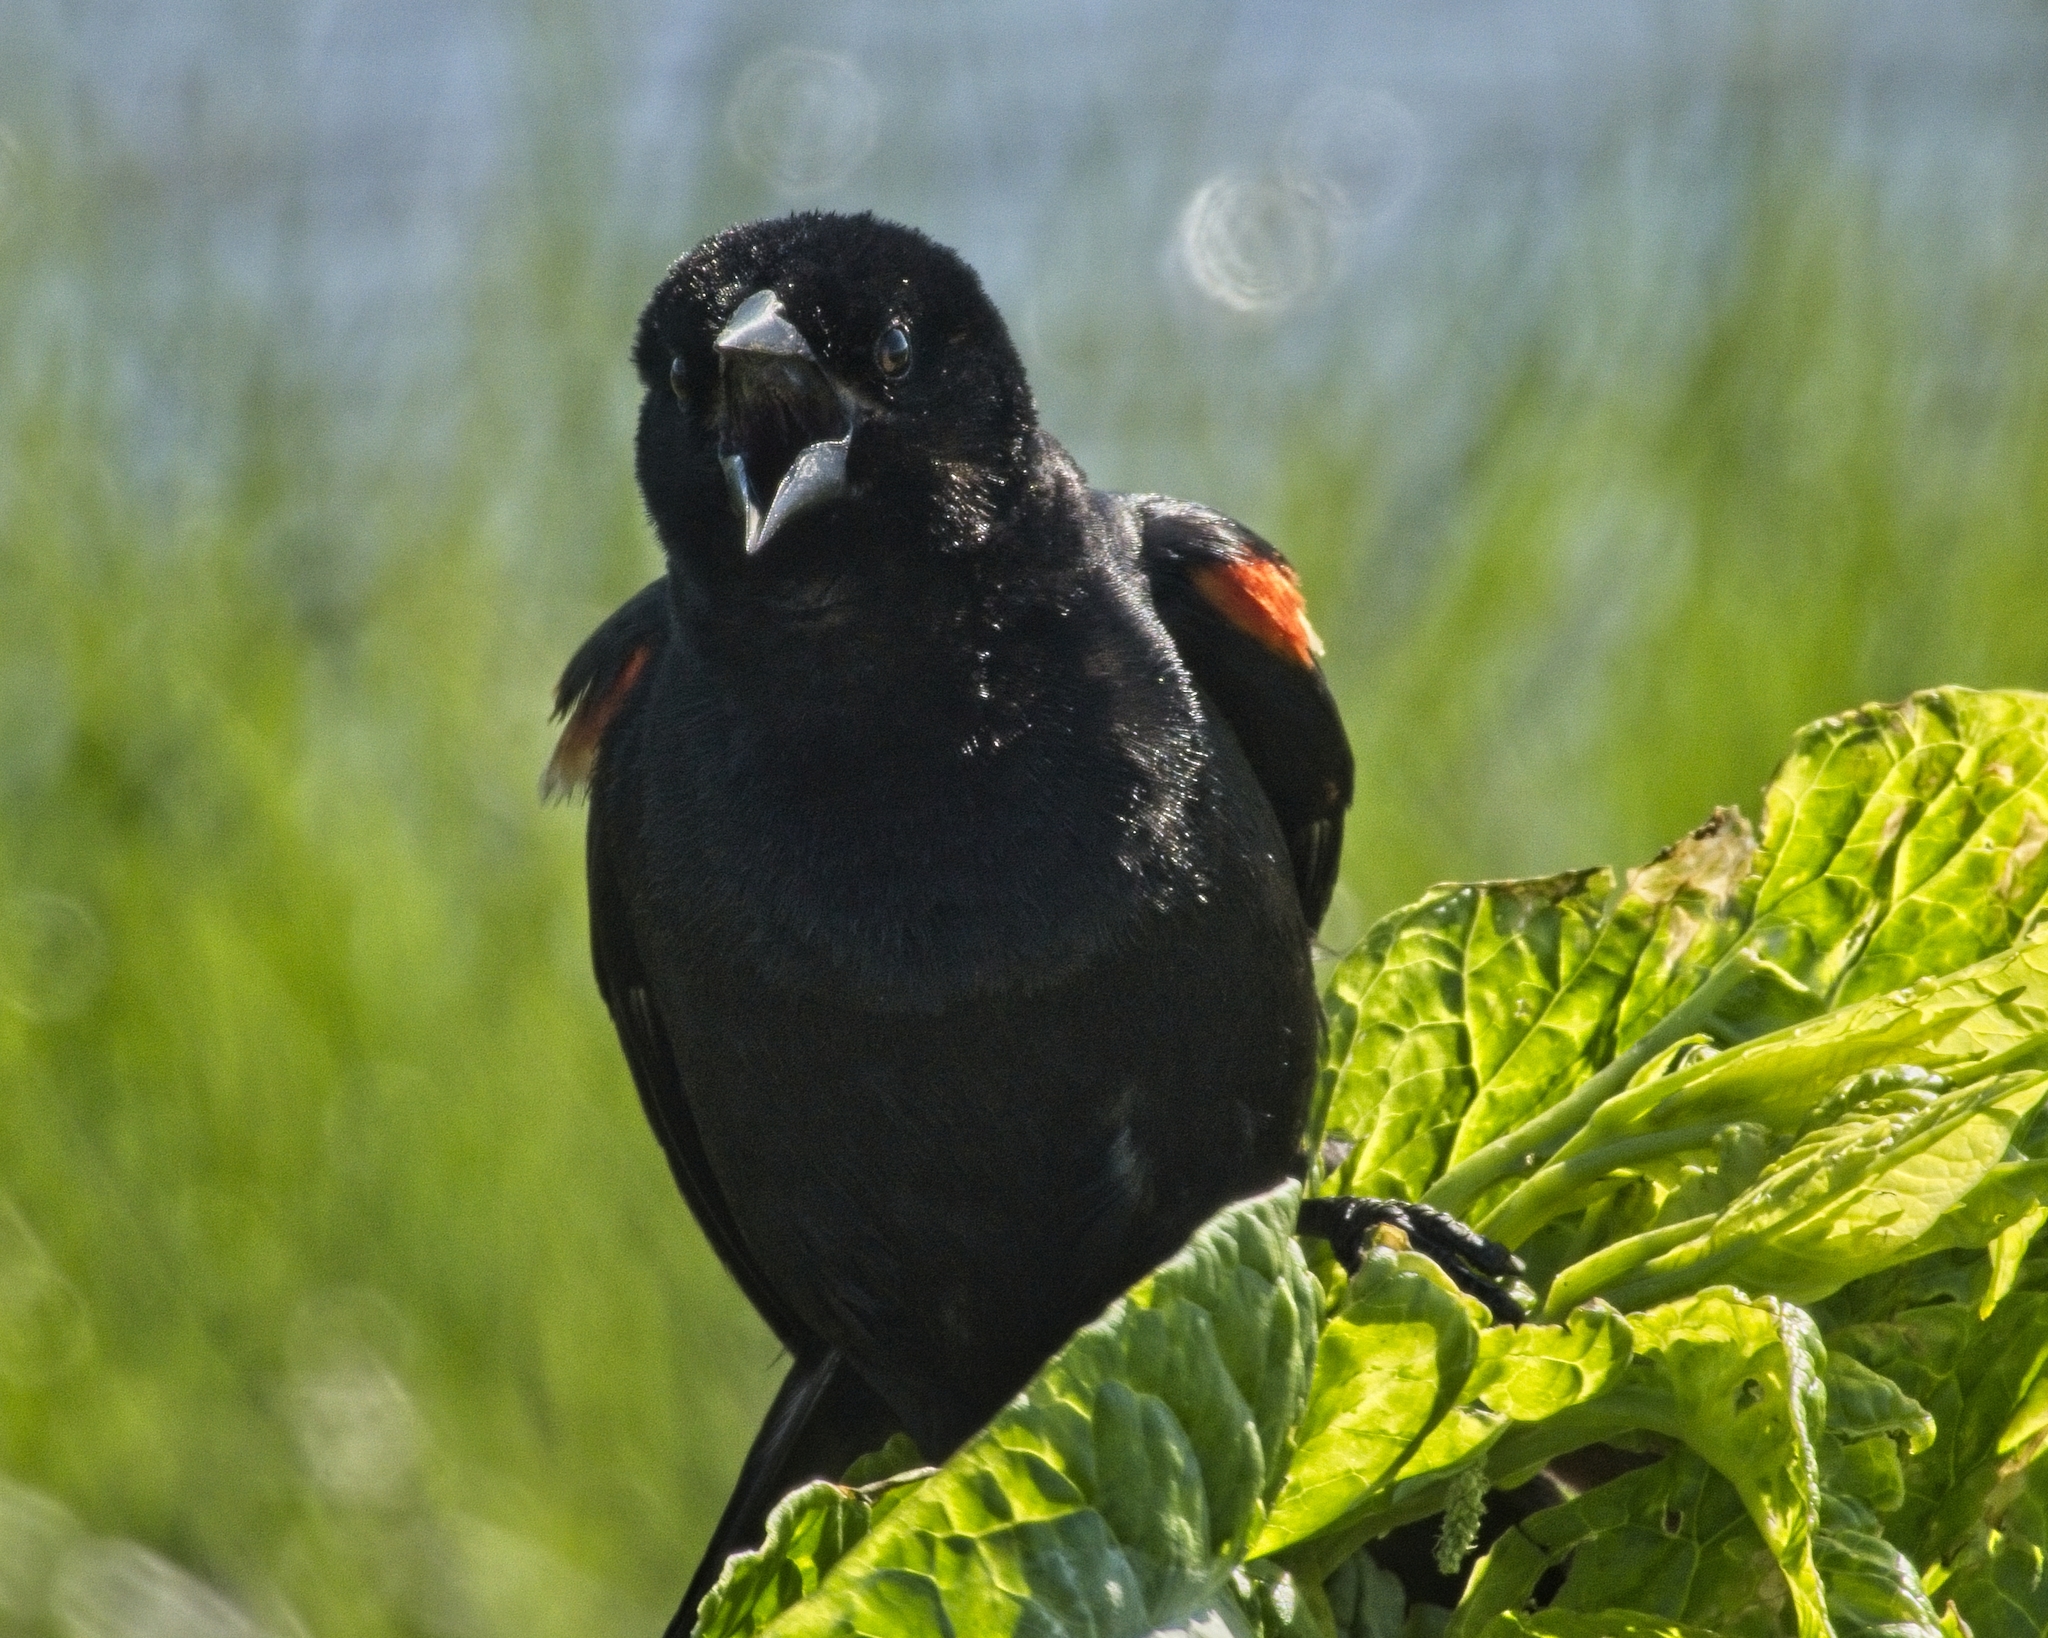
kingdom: Animalia
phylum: Chordata
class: Aves
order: Passeriformes
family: Icteridae
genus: Agelaius
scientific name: Agelaius phoeniceus
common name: Red-winged blackbird
